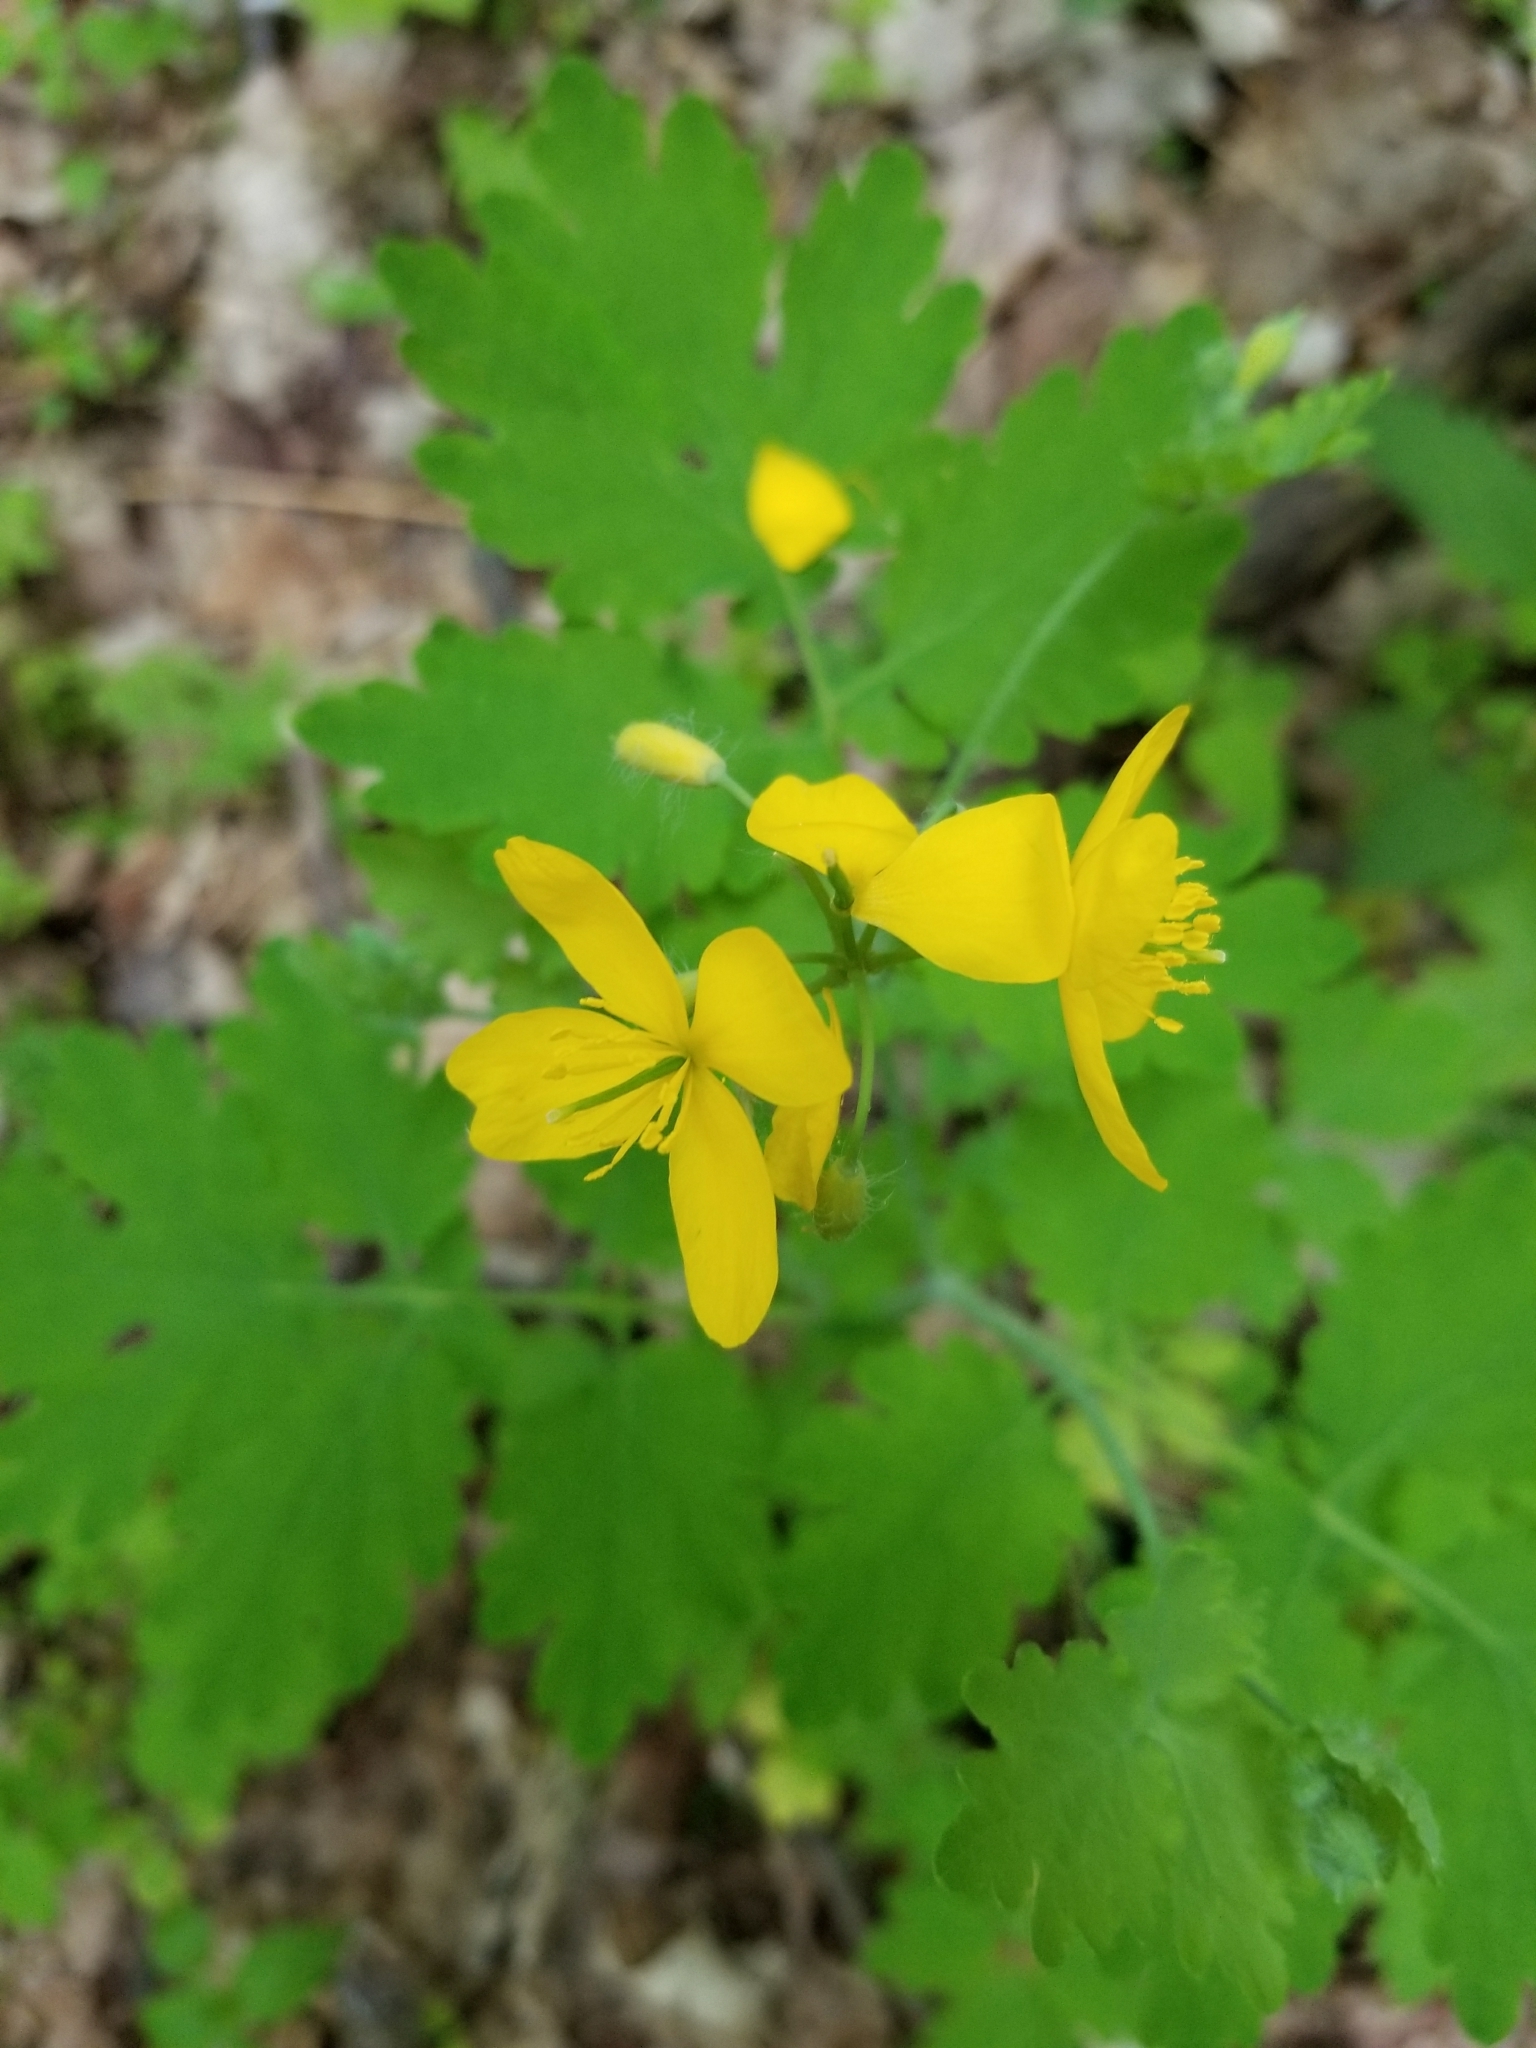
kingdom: Plantae
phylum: Tracheophyta
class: Magnoliopsida
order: Ranunculales
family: Papaveraceae
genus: Chelidonium
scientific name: Chelidonium majus
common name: Greater celandine
